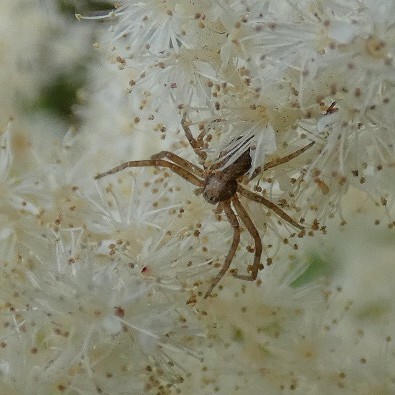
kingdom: Animalia
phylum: Arthropoda
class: Arachnida
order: Araneae
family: Philodromidae
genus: Philodromus
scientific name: Philodromus
